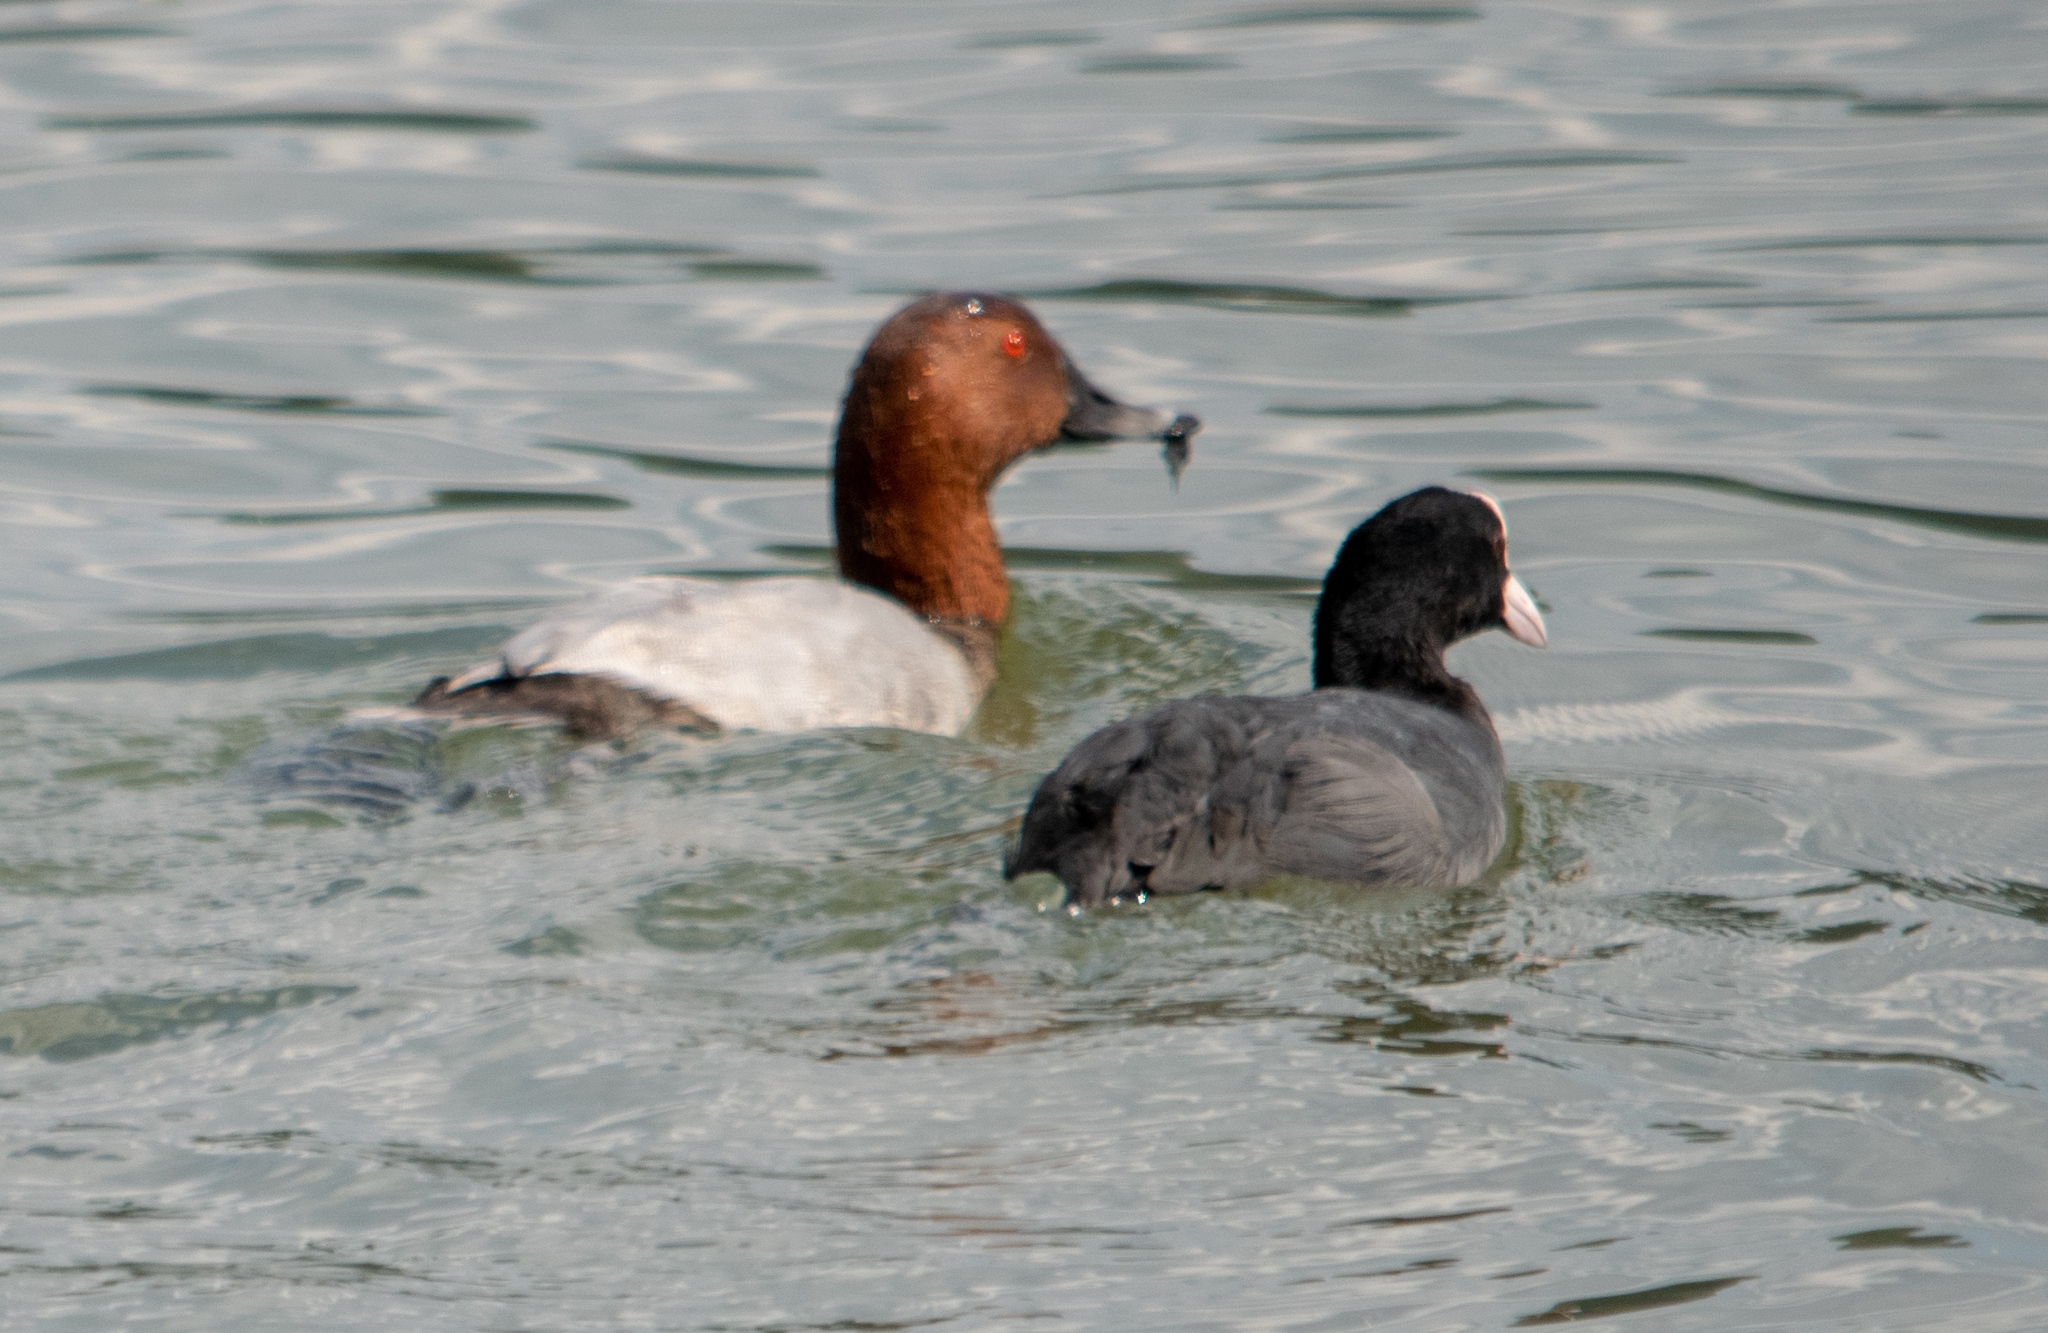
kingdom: Animalia
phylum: Chordata
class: Aves
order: Gruiformes
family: Rallidae
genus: Fulica
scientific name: Fulica atra
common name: Eurasian coot
